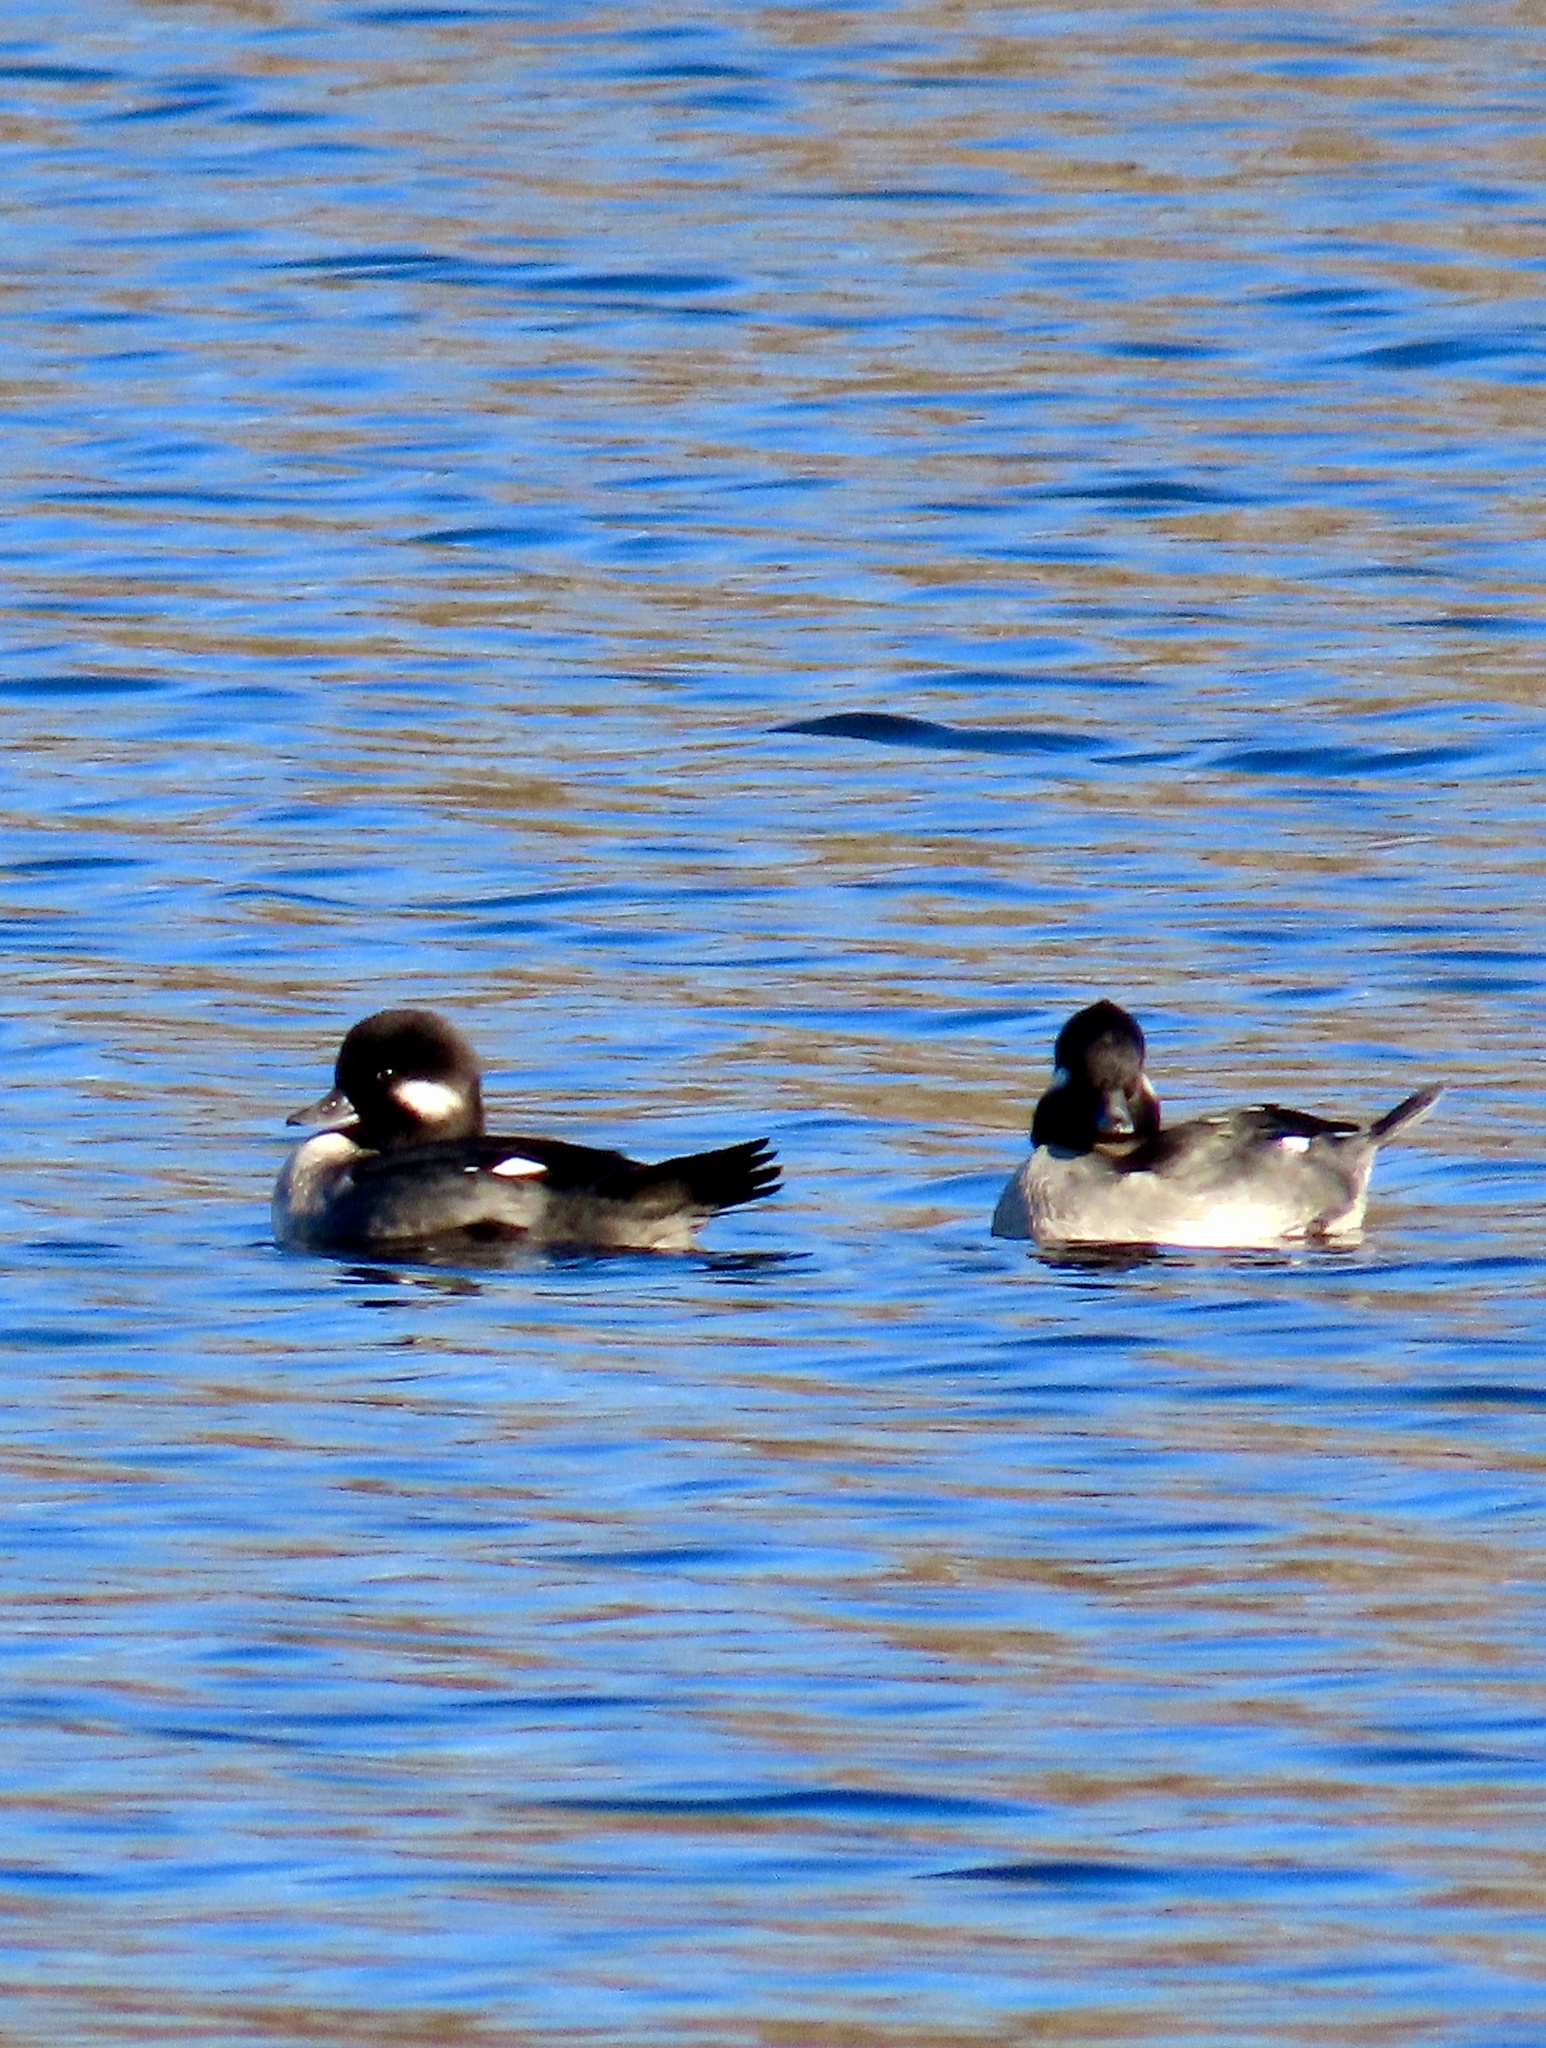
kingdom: Animalia
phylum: Chordata
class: Aves
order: Anseriformes
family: Anatidae
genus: Bucephala
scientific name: Bucephala albeola
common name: Bufflehead
